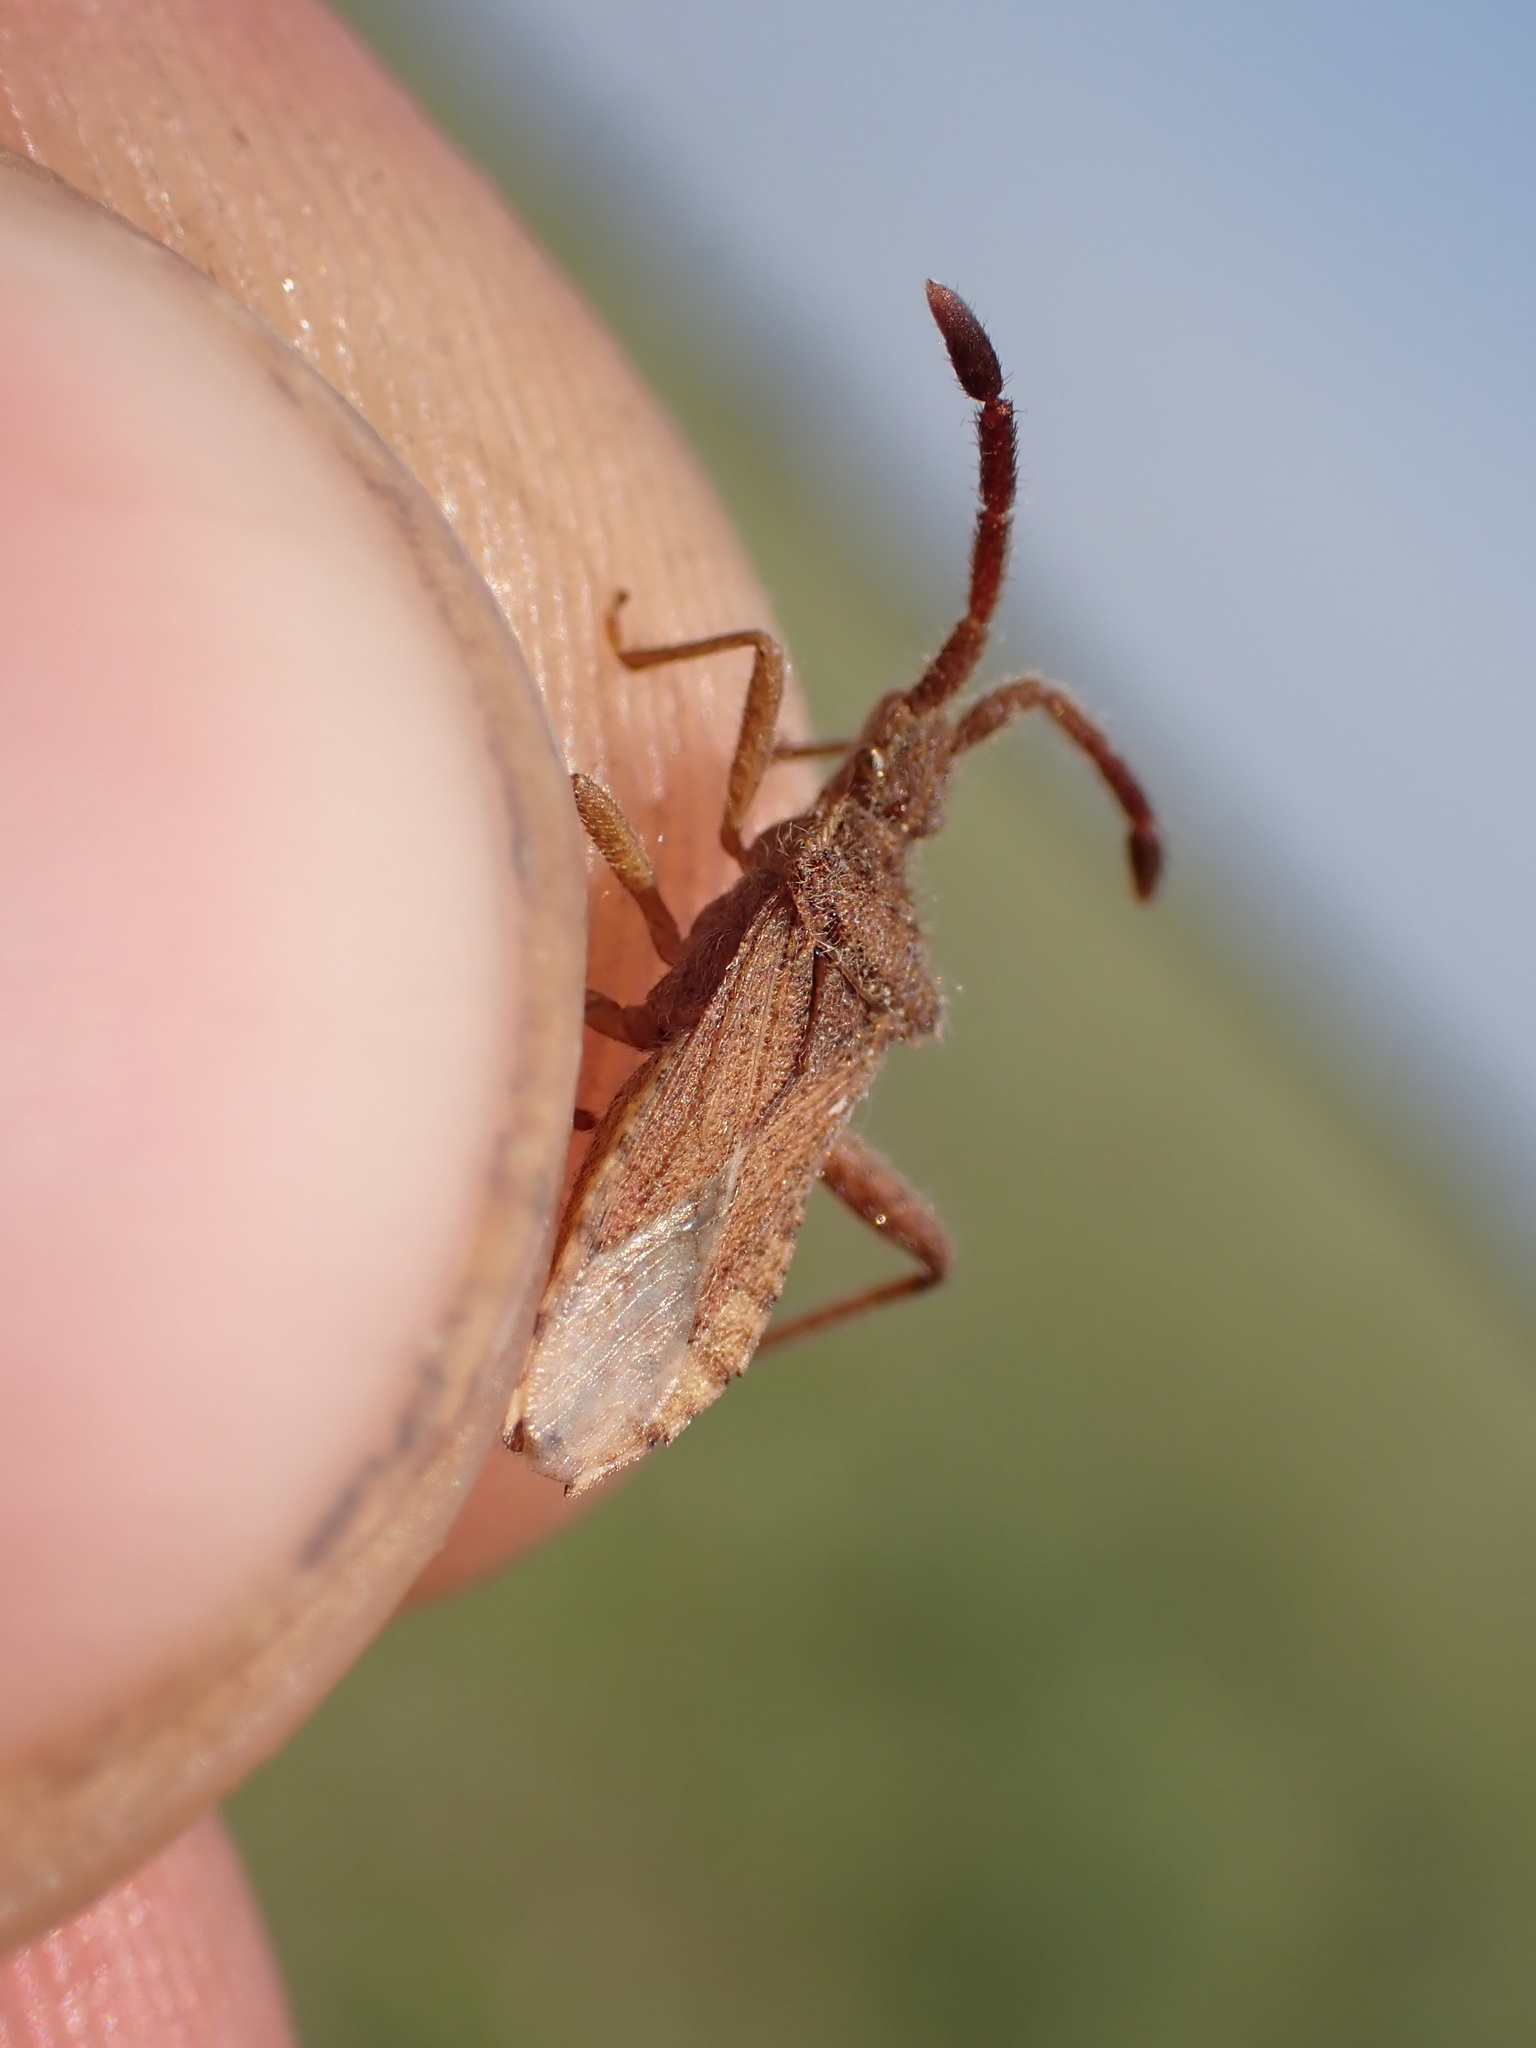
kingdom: Animalia
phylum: Arthropoda
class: Insecta
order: Hemiptera
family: Coreidae
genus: Coriomeris
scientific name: Coriomeris hirticornis
